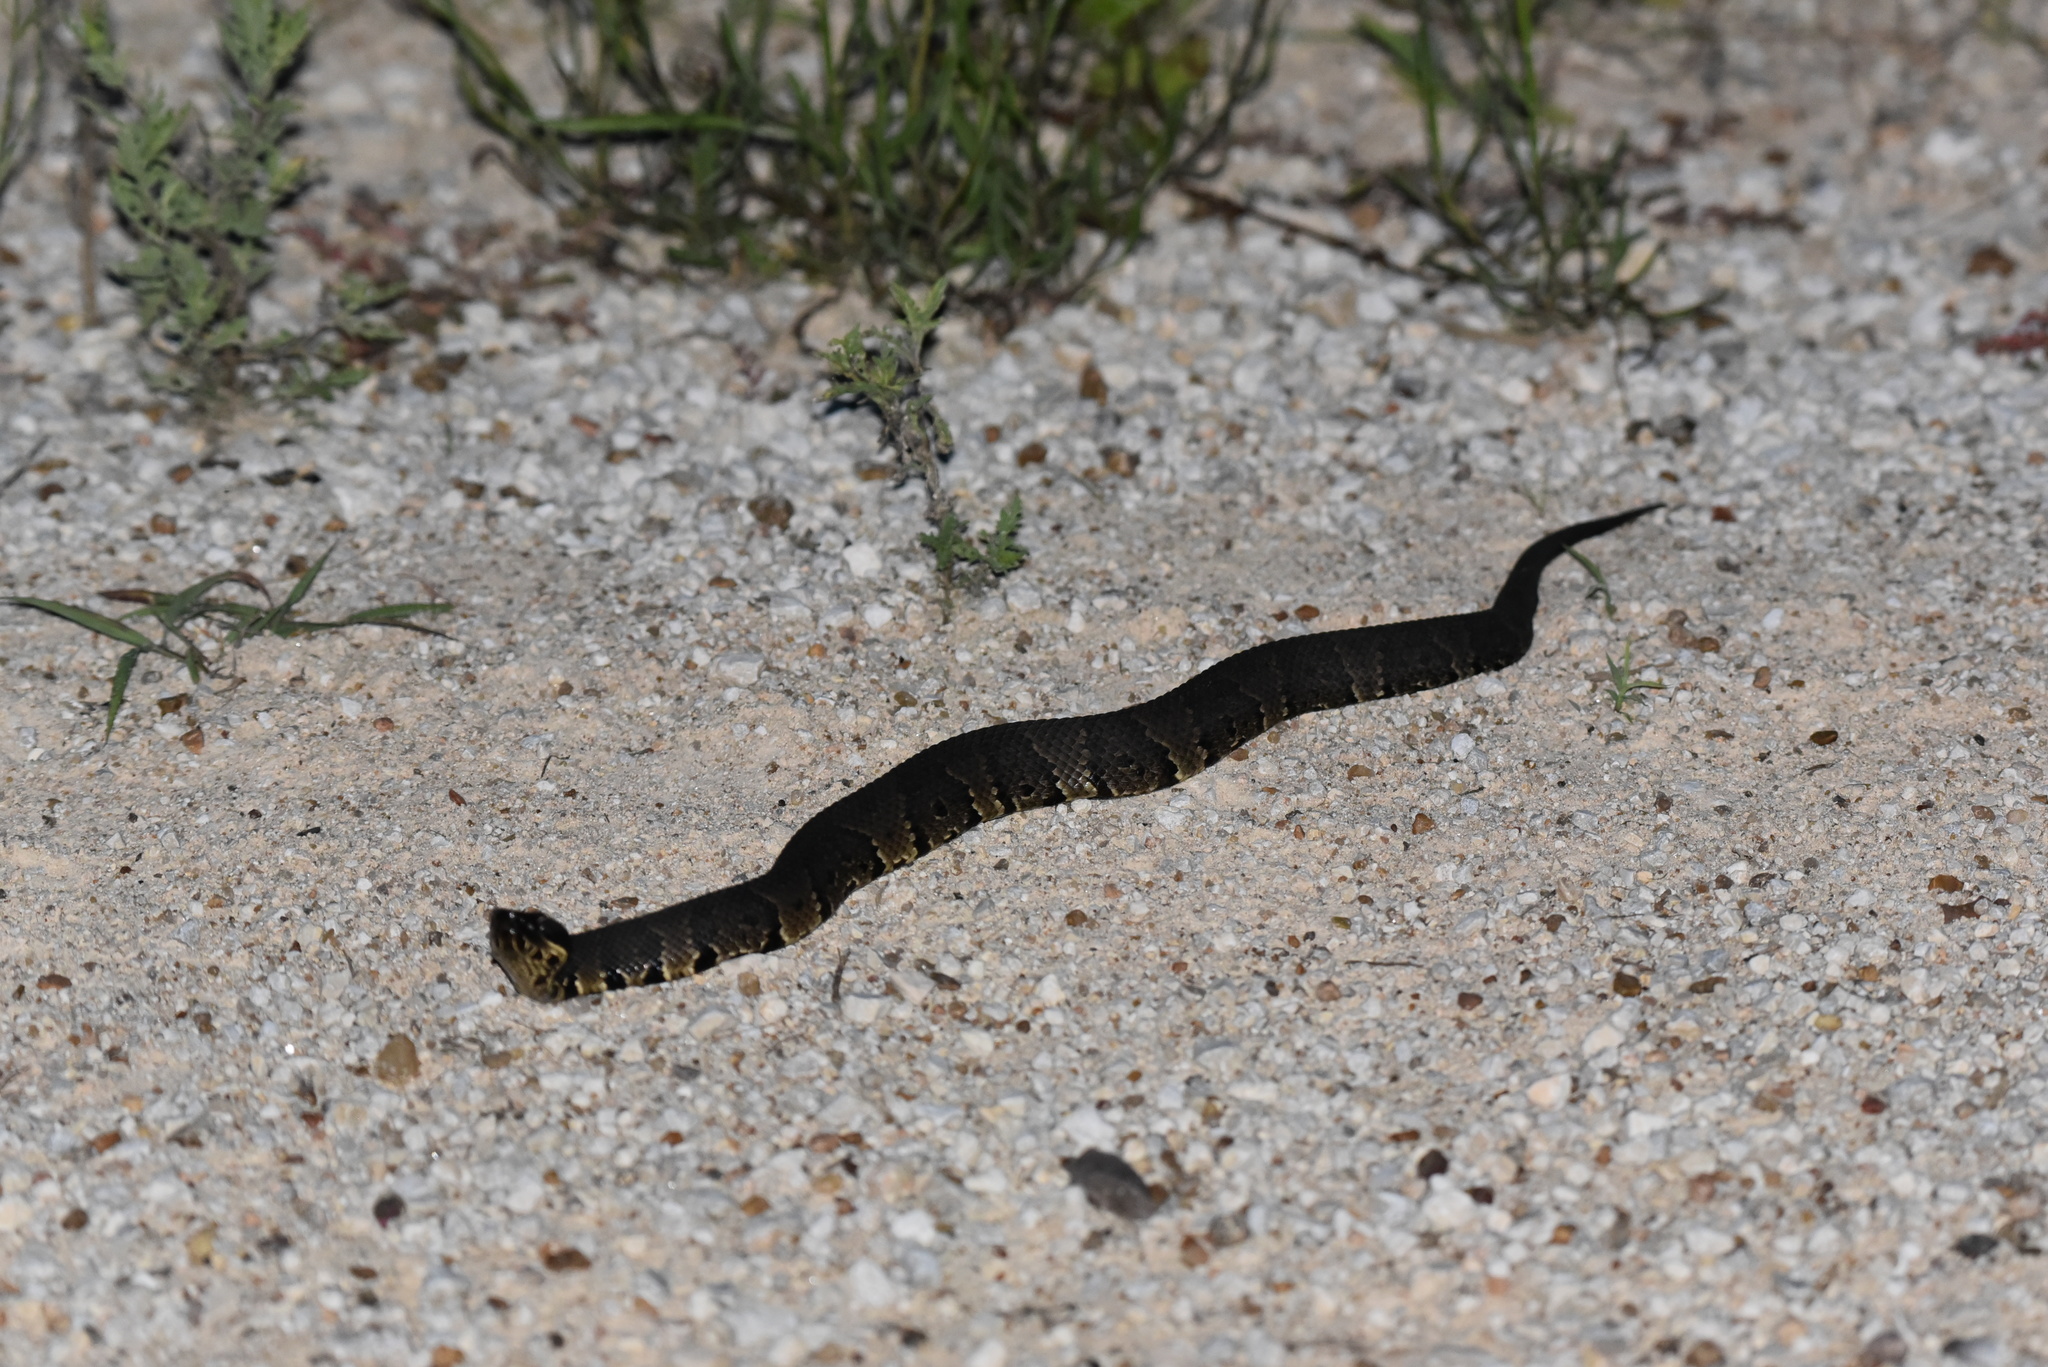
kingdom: Animalia
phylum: Chordata
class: Squamata
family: Viperidae
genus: Agkistrodon
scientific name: Agkistrodon piscivorus
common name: Cottonmouth
